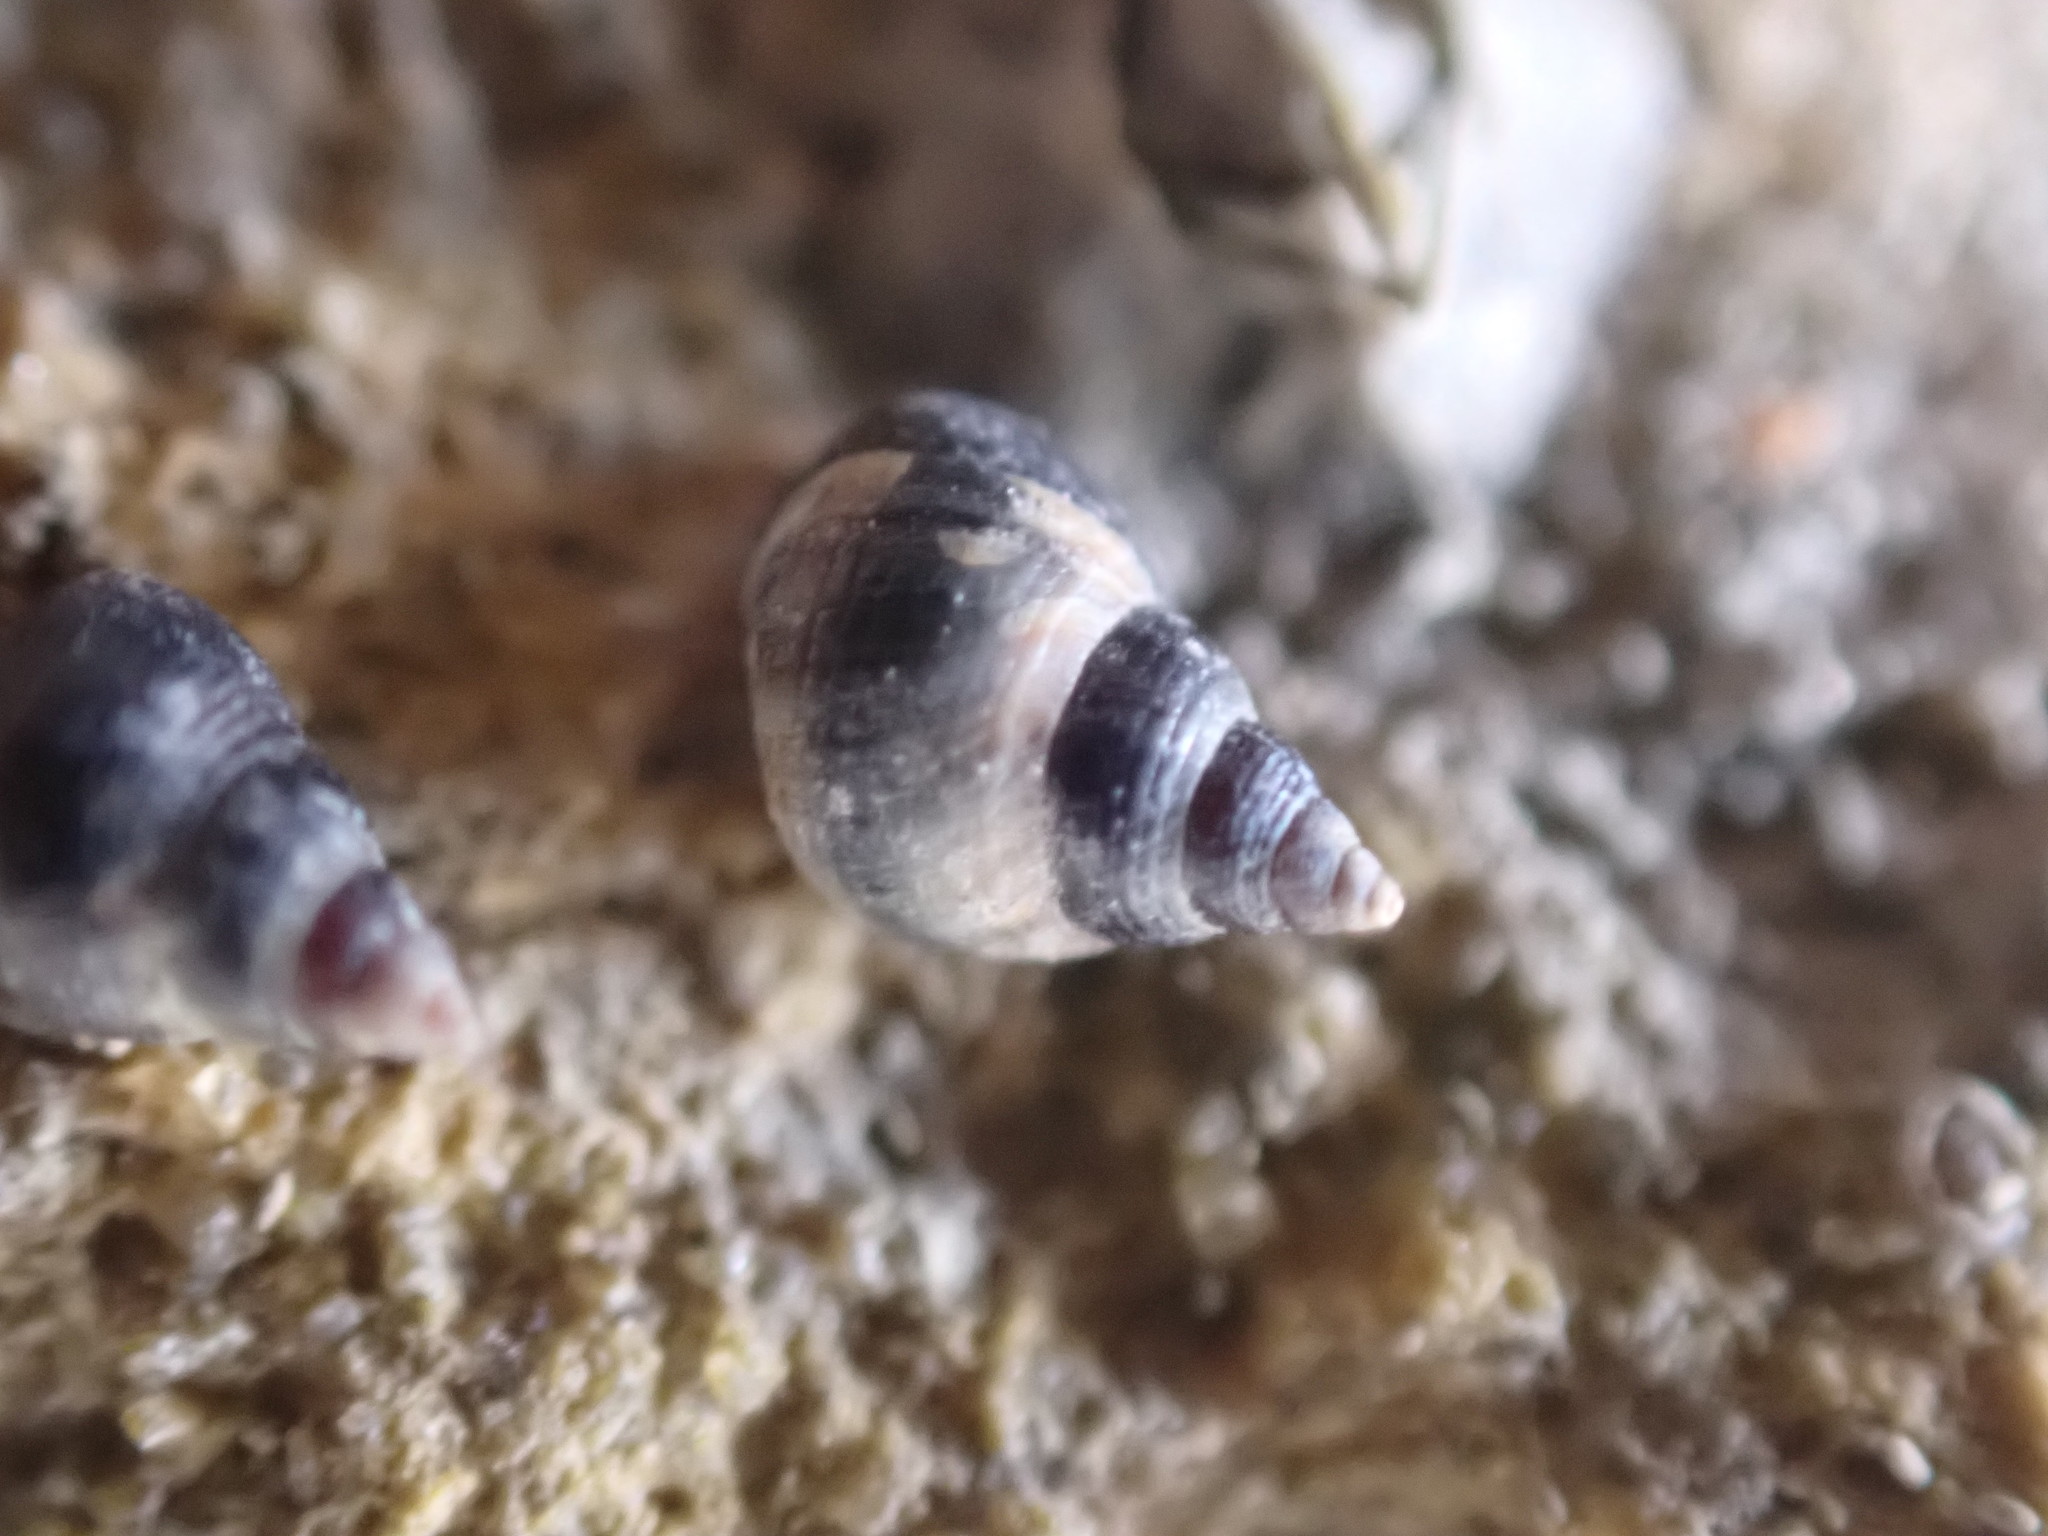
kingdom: Animalia
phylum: Mollusca
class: Gastropoda
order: Littorinimorpha
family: Littorinidae
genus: Austrolittorina
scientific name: Austrolittorina antipodum
